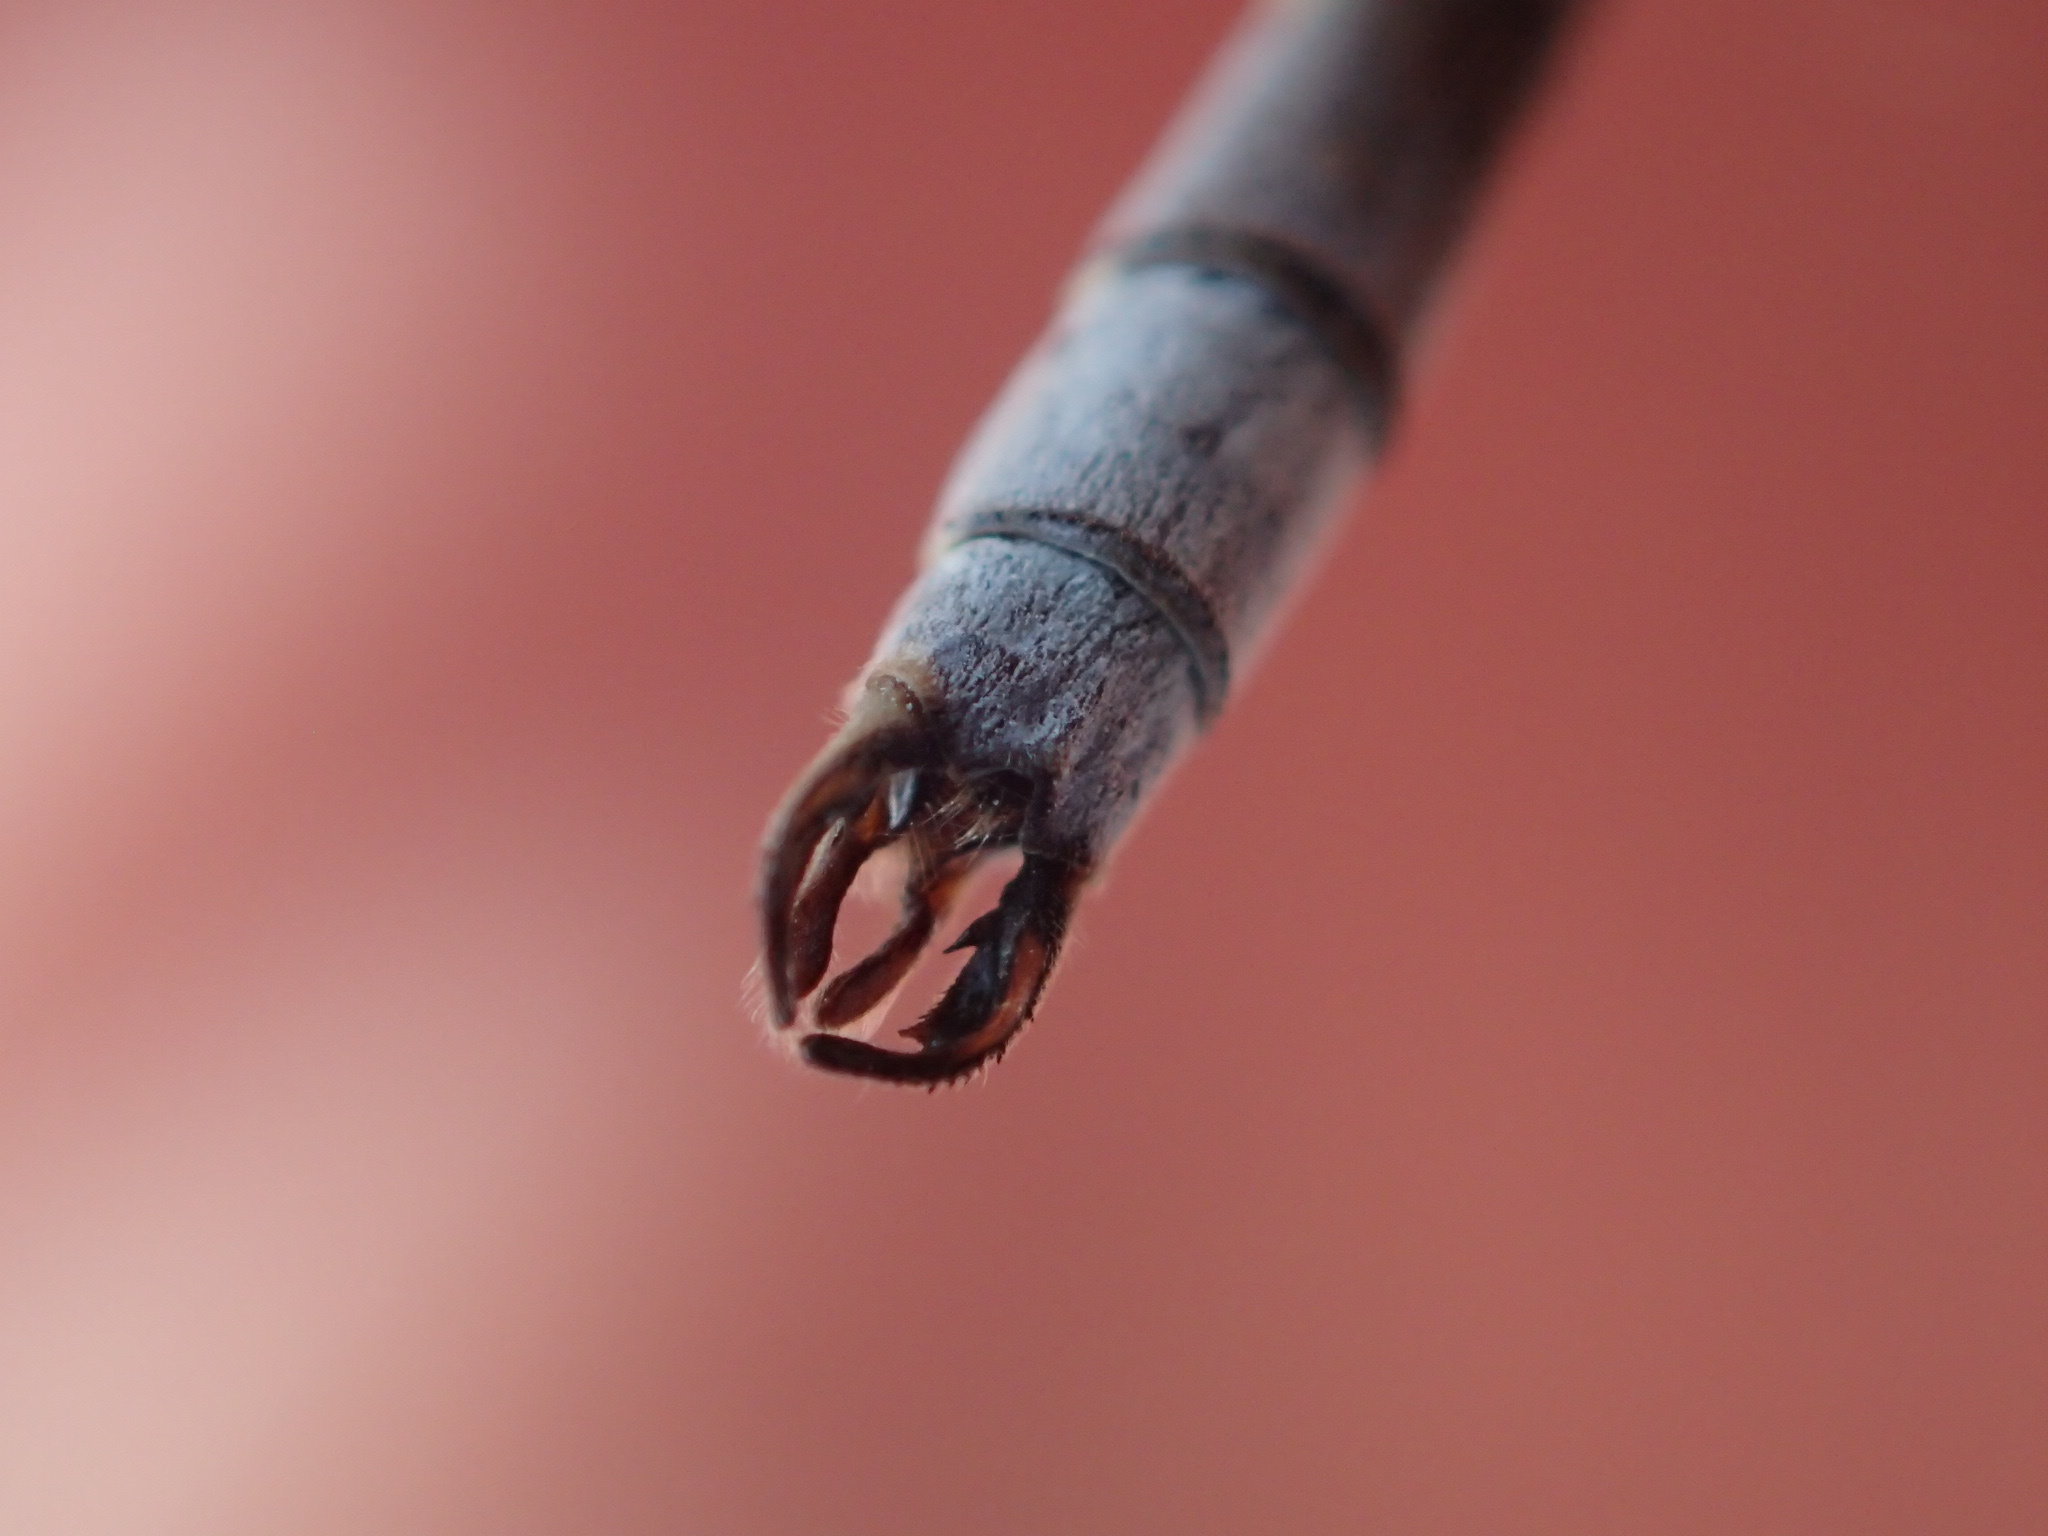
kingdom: Animalia
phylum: Arthropoda
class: Insecta
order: Odonata
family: Lestidae
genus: Lestes
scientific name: Lestes disjunctus
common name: Northern spreadwing
